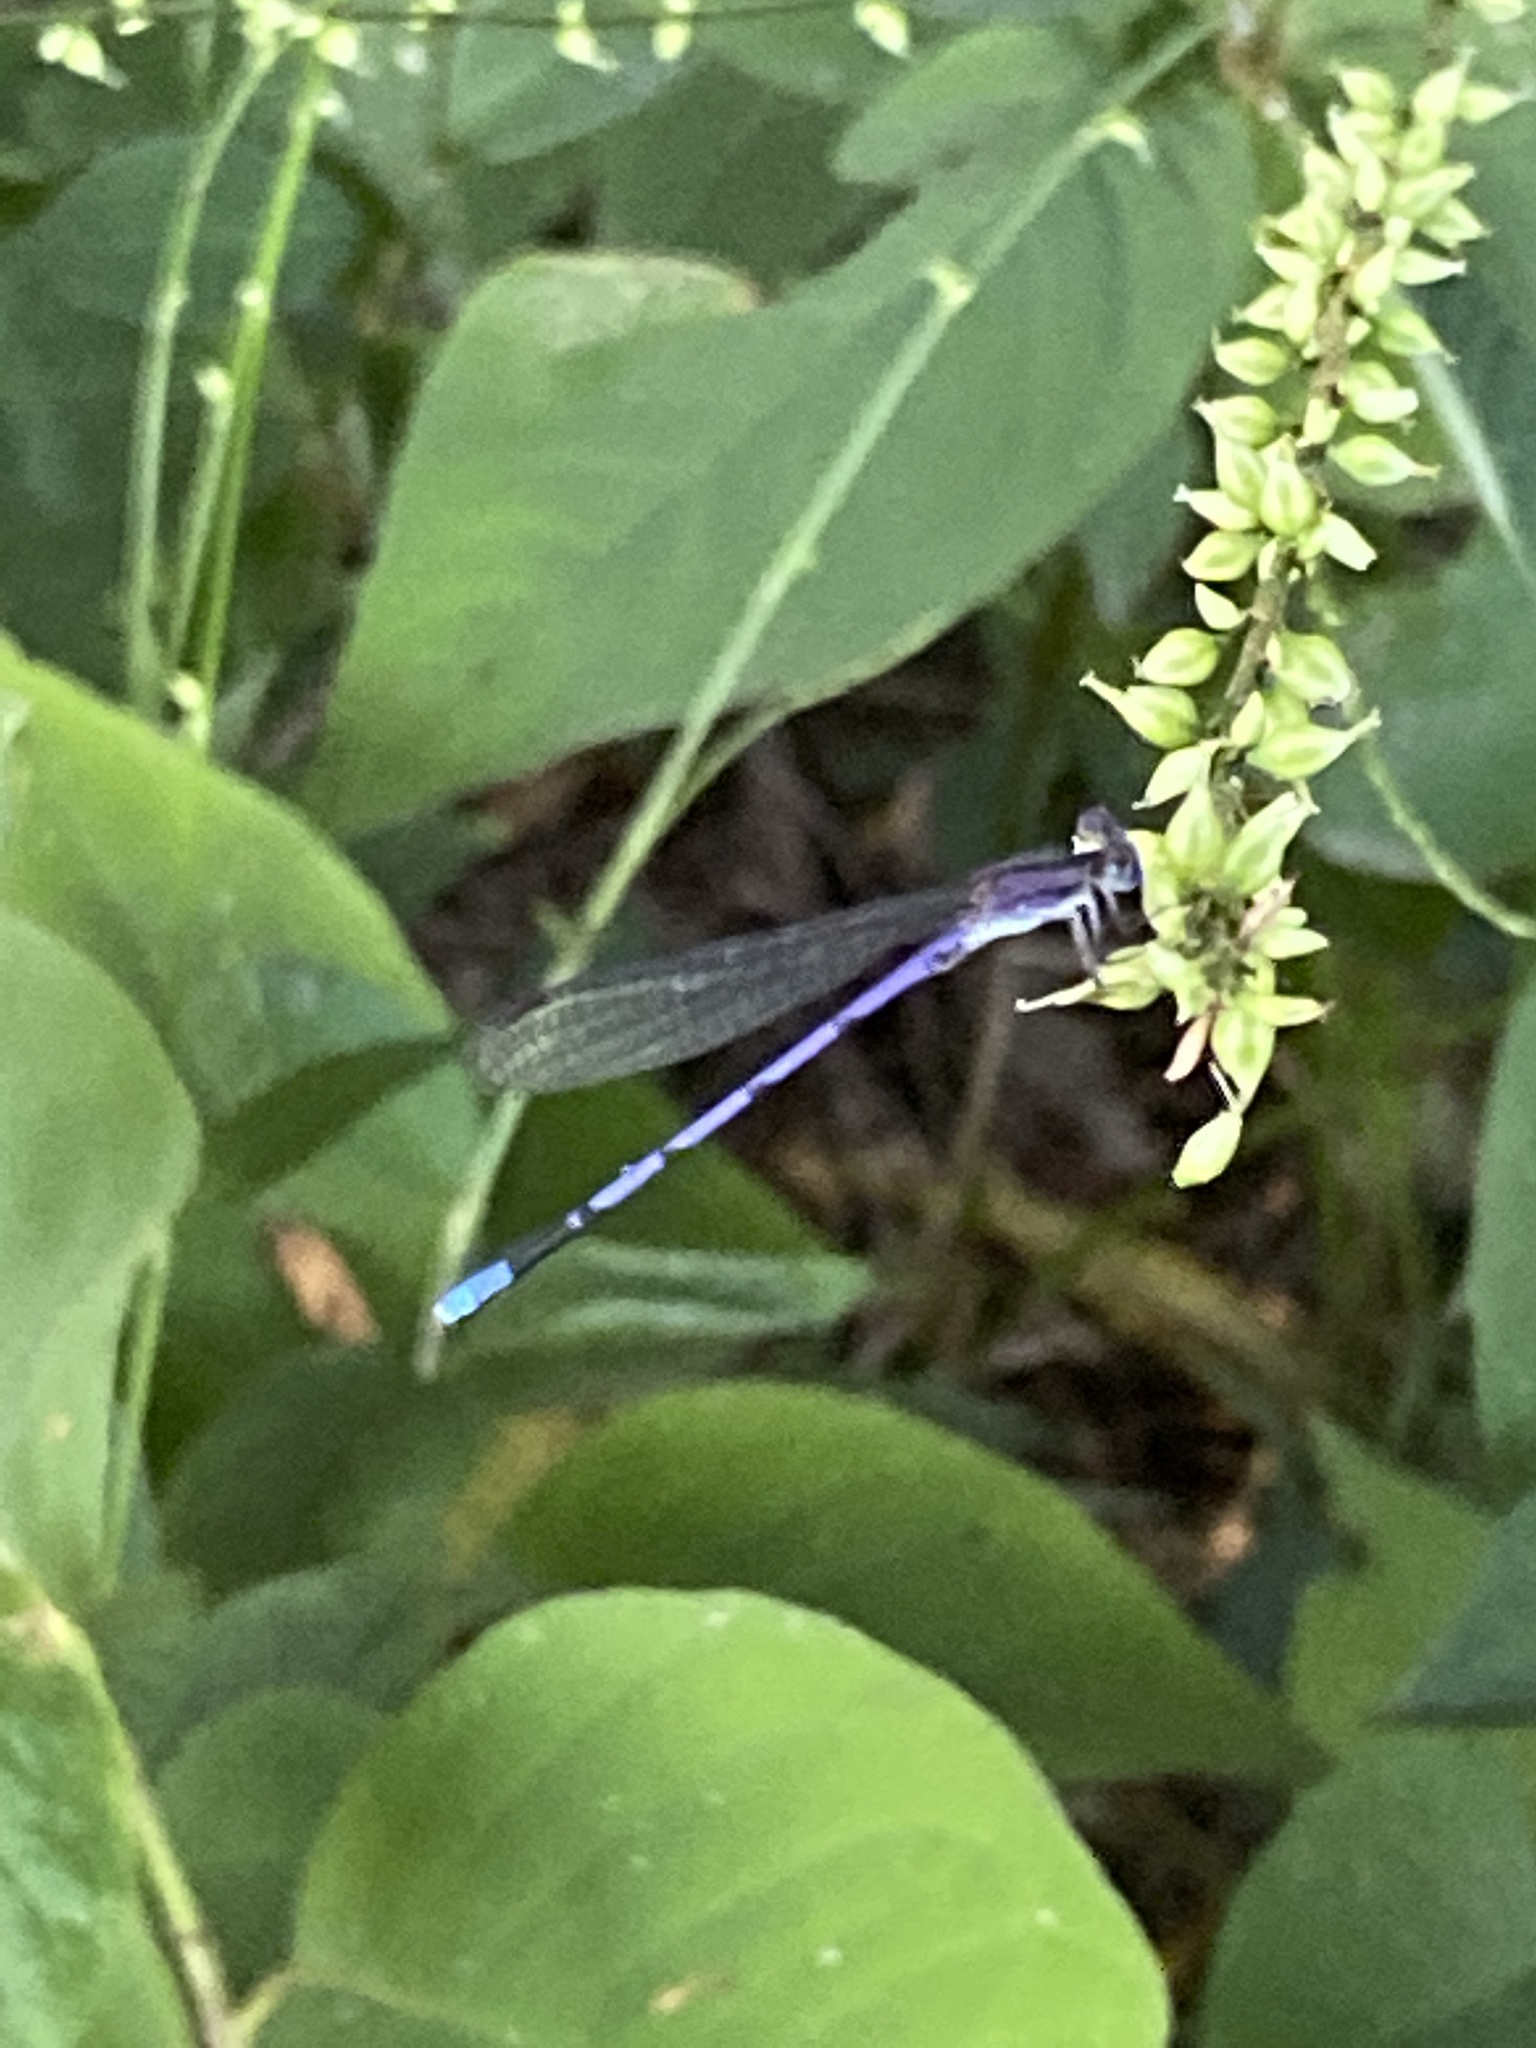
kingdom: Animalia
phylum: Arthropoda
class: Insecta
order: Odonata
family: Coenagrionidae
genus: Argia
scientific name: Argia fumipennis
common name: Variable dancer
